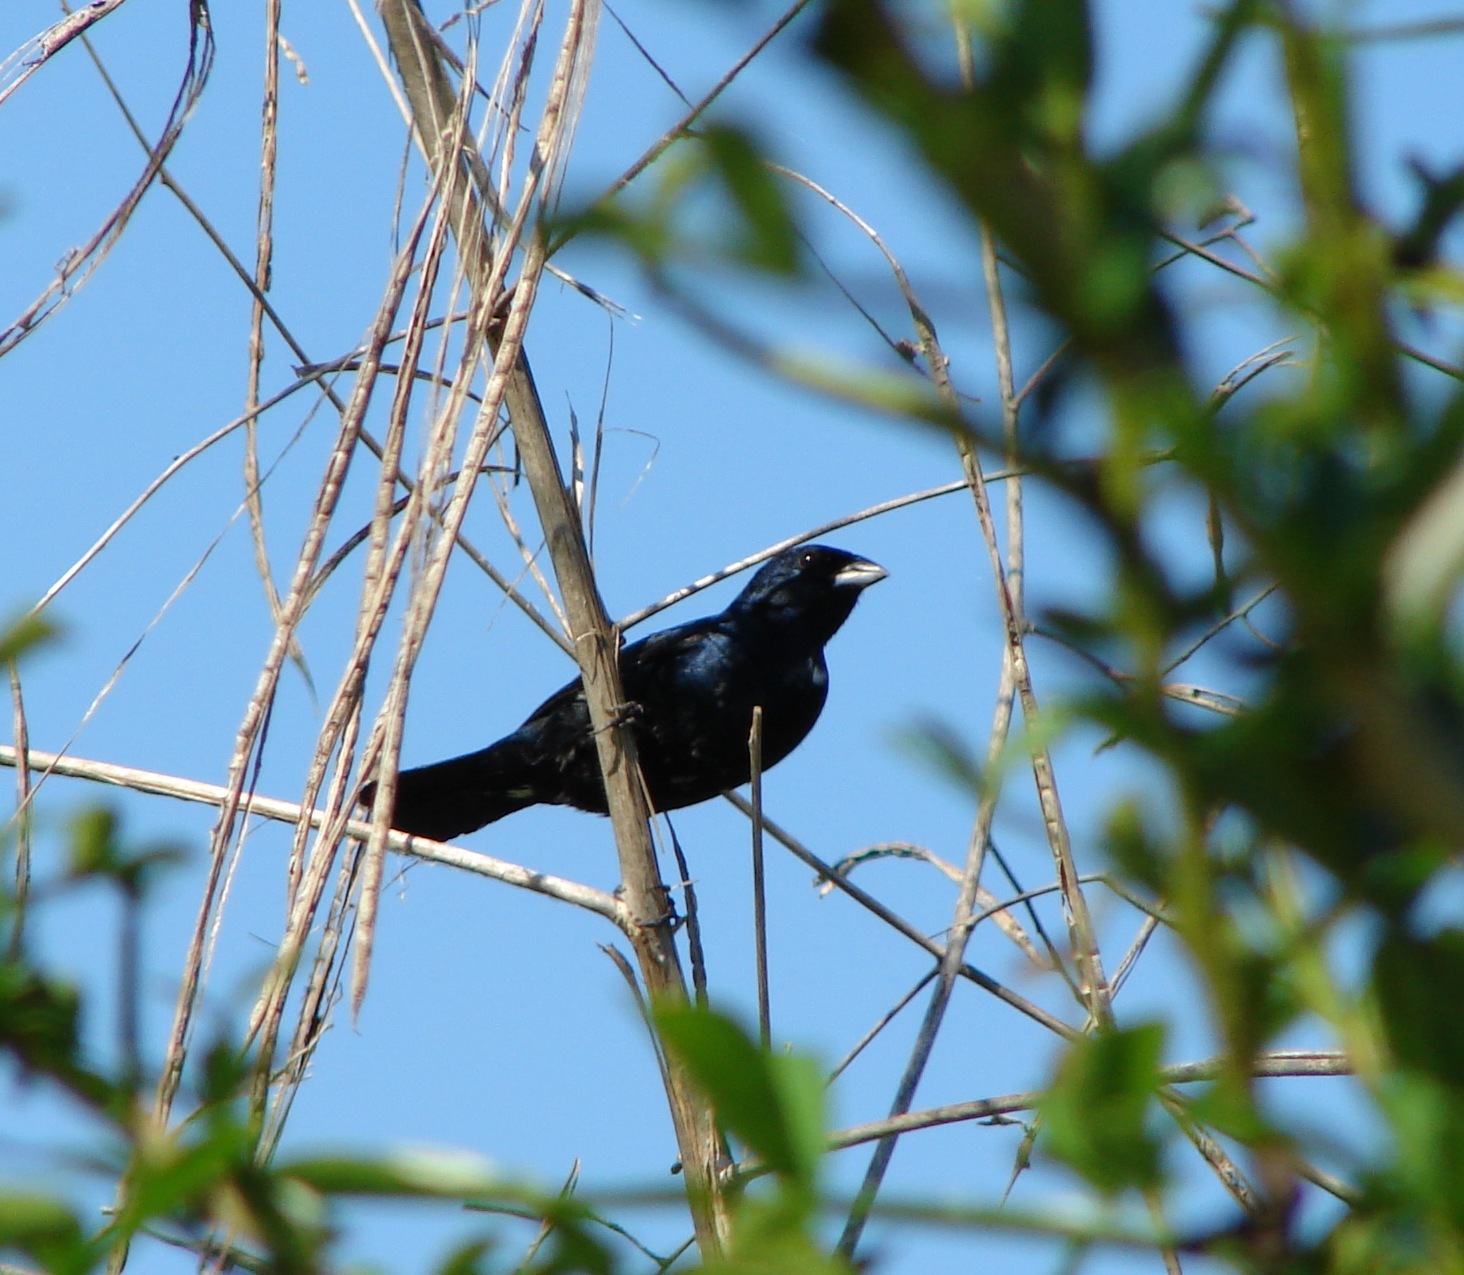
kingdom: Animalia
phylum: Chordata
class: Aves
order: Passeriformes
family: Thraupidae
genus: Volatinia
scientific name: Volatinia jacarina
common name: Blue-black grassquit
